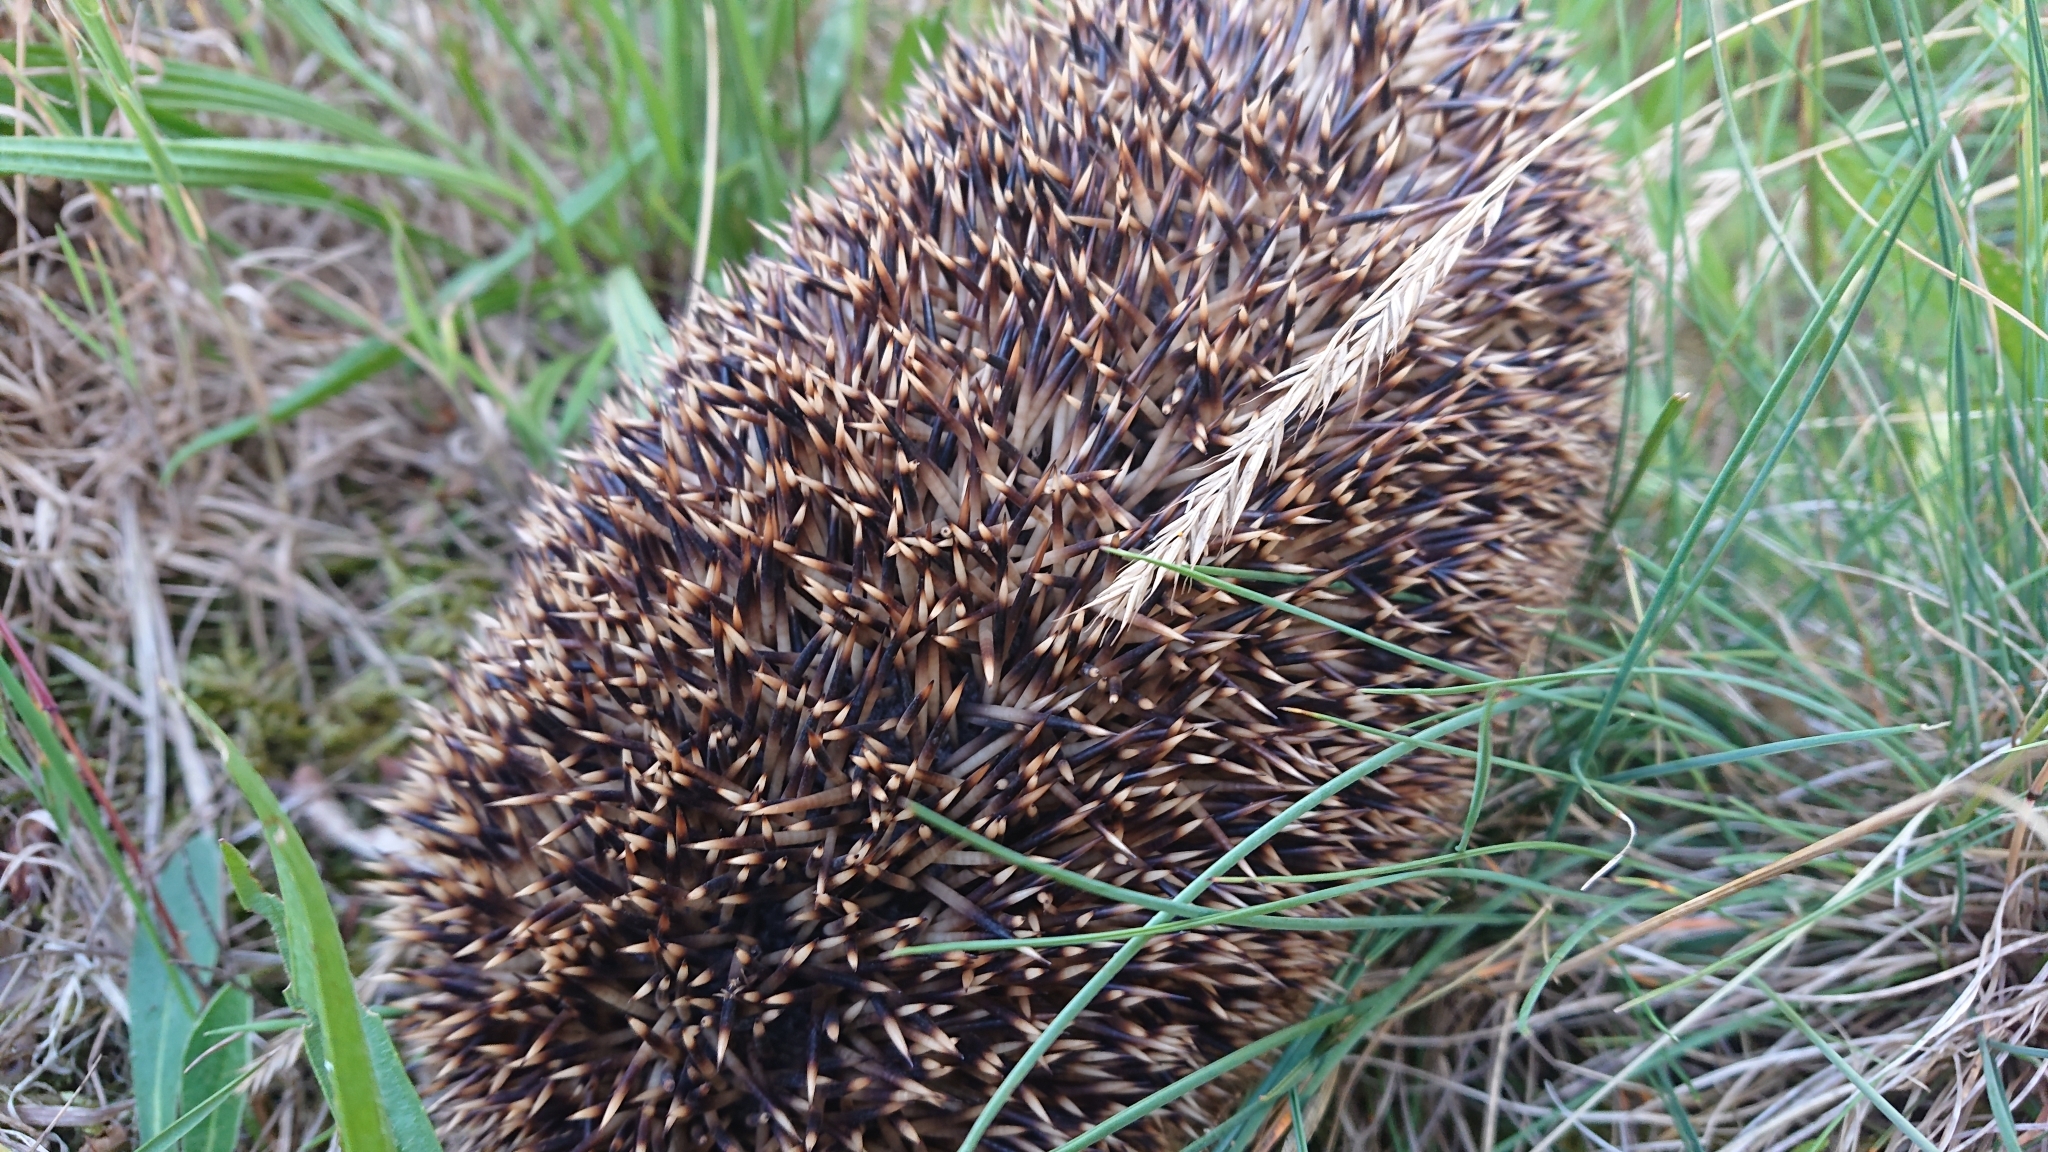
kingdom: Animalia
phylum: Chordata
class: Mammalia
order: Erinaceomorpha
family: Erinaceidae
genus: Erinaceus
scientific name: Erinaceus europaeus
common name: West european hedgehog
